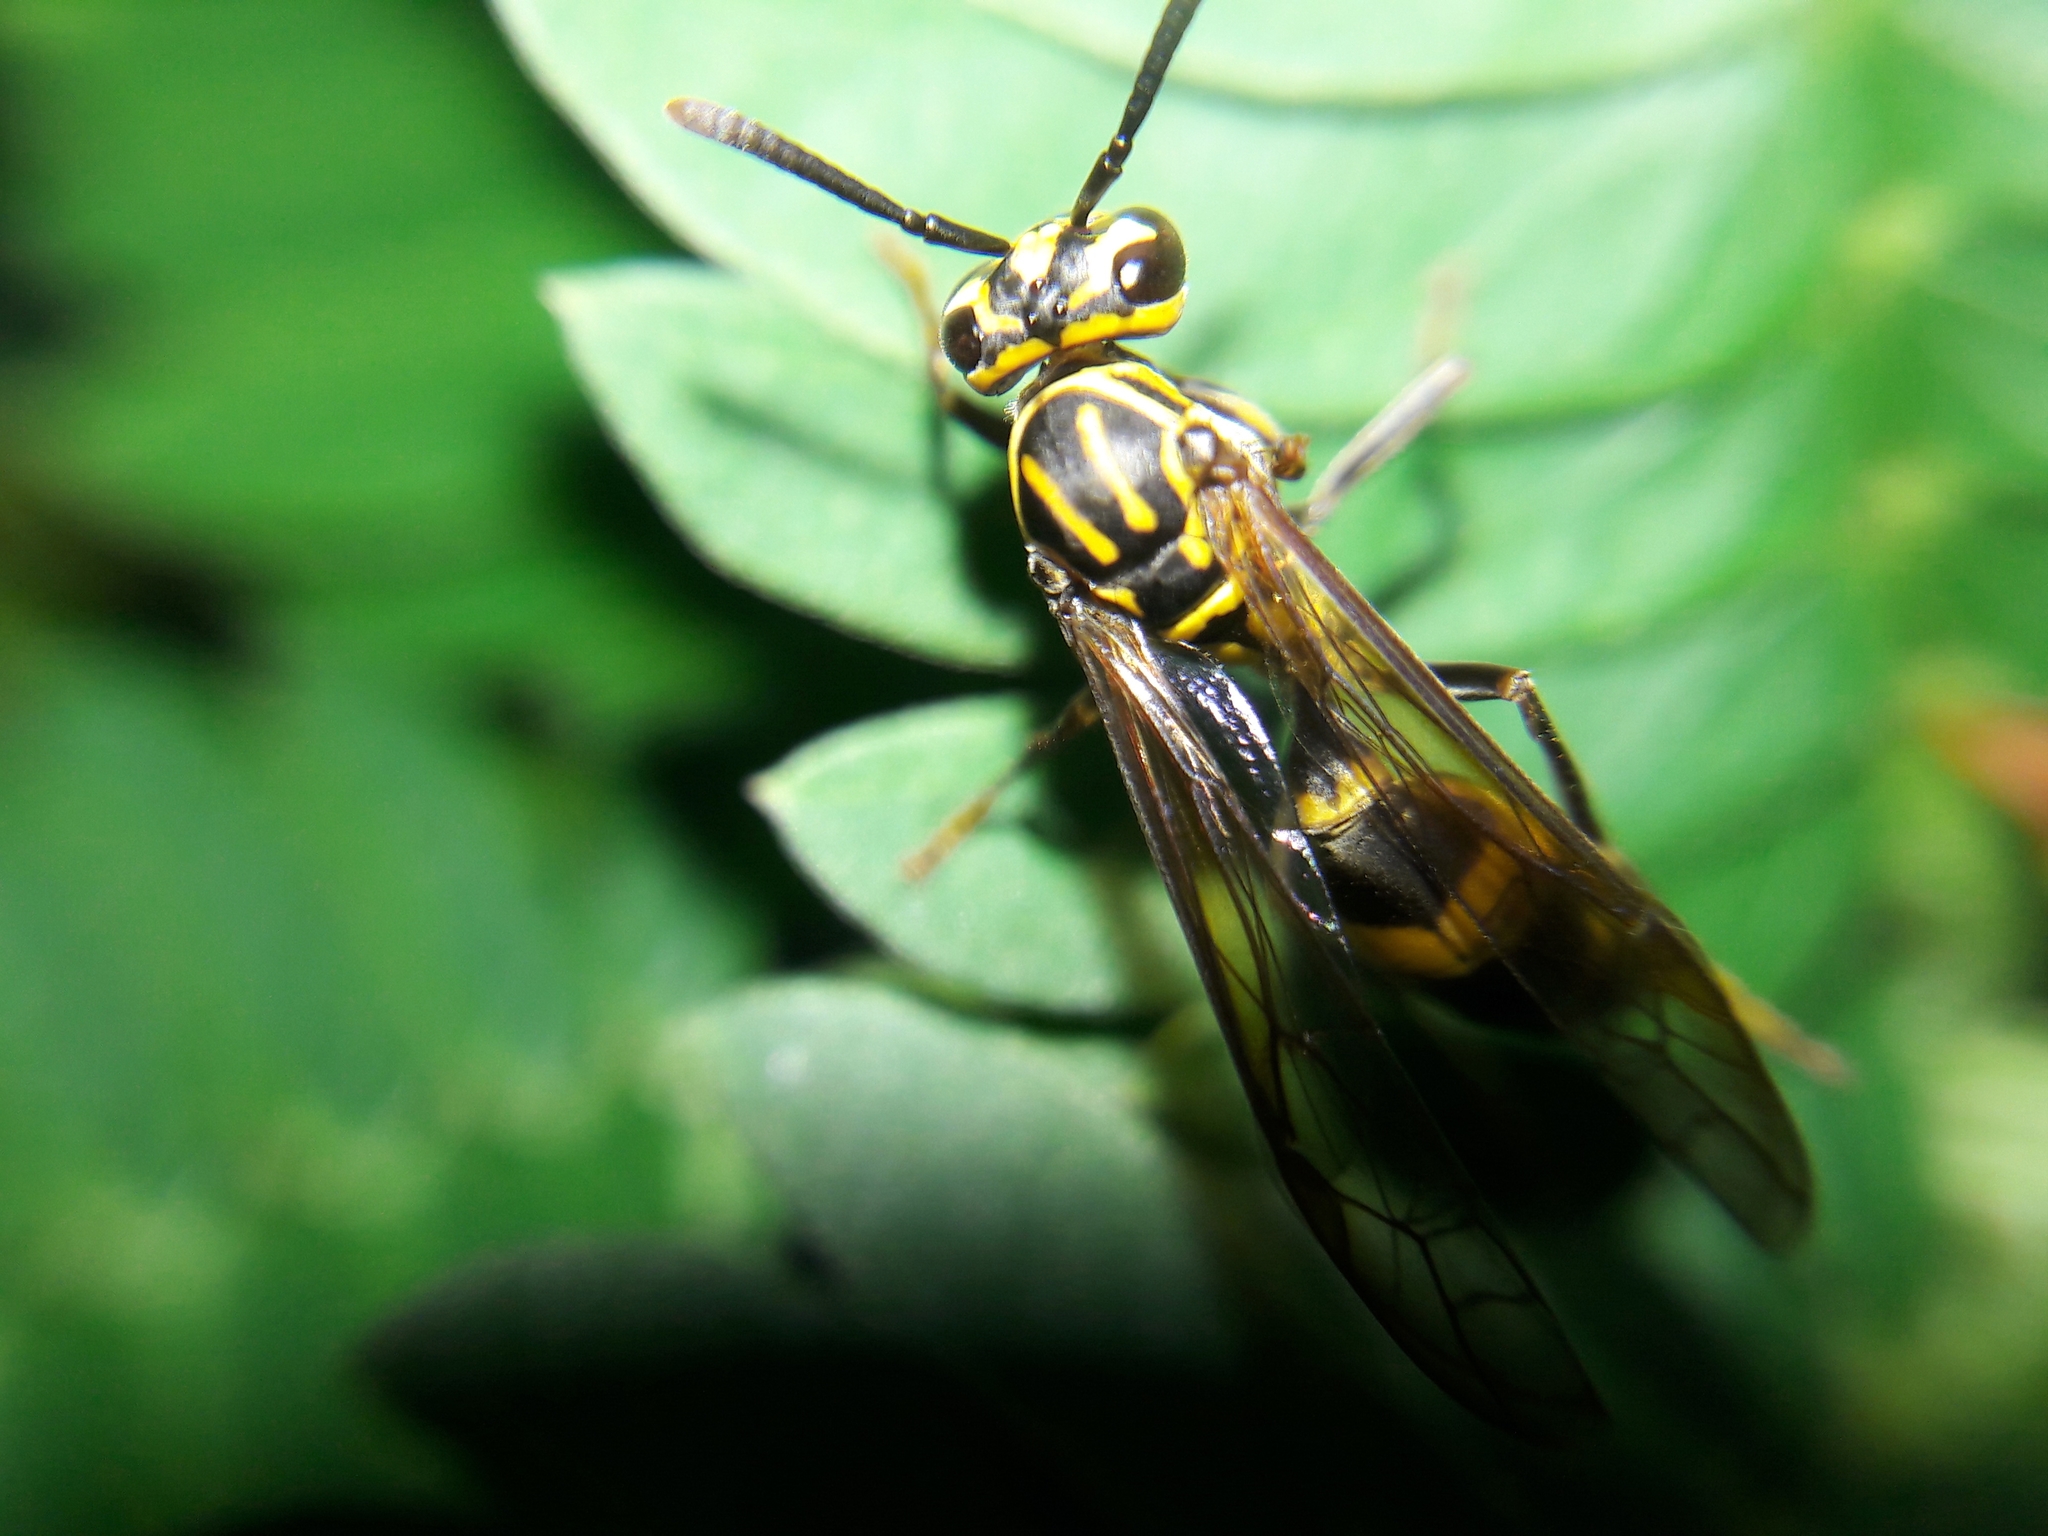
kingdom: Animalia
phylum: Arthropoda
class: Insecta
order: Hymenoptera
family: Eumenidae
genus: Polybia
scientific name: Polybia fastidiosuscula
